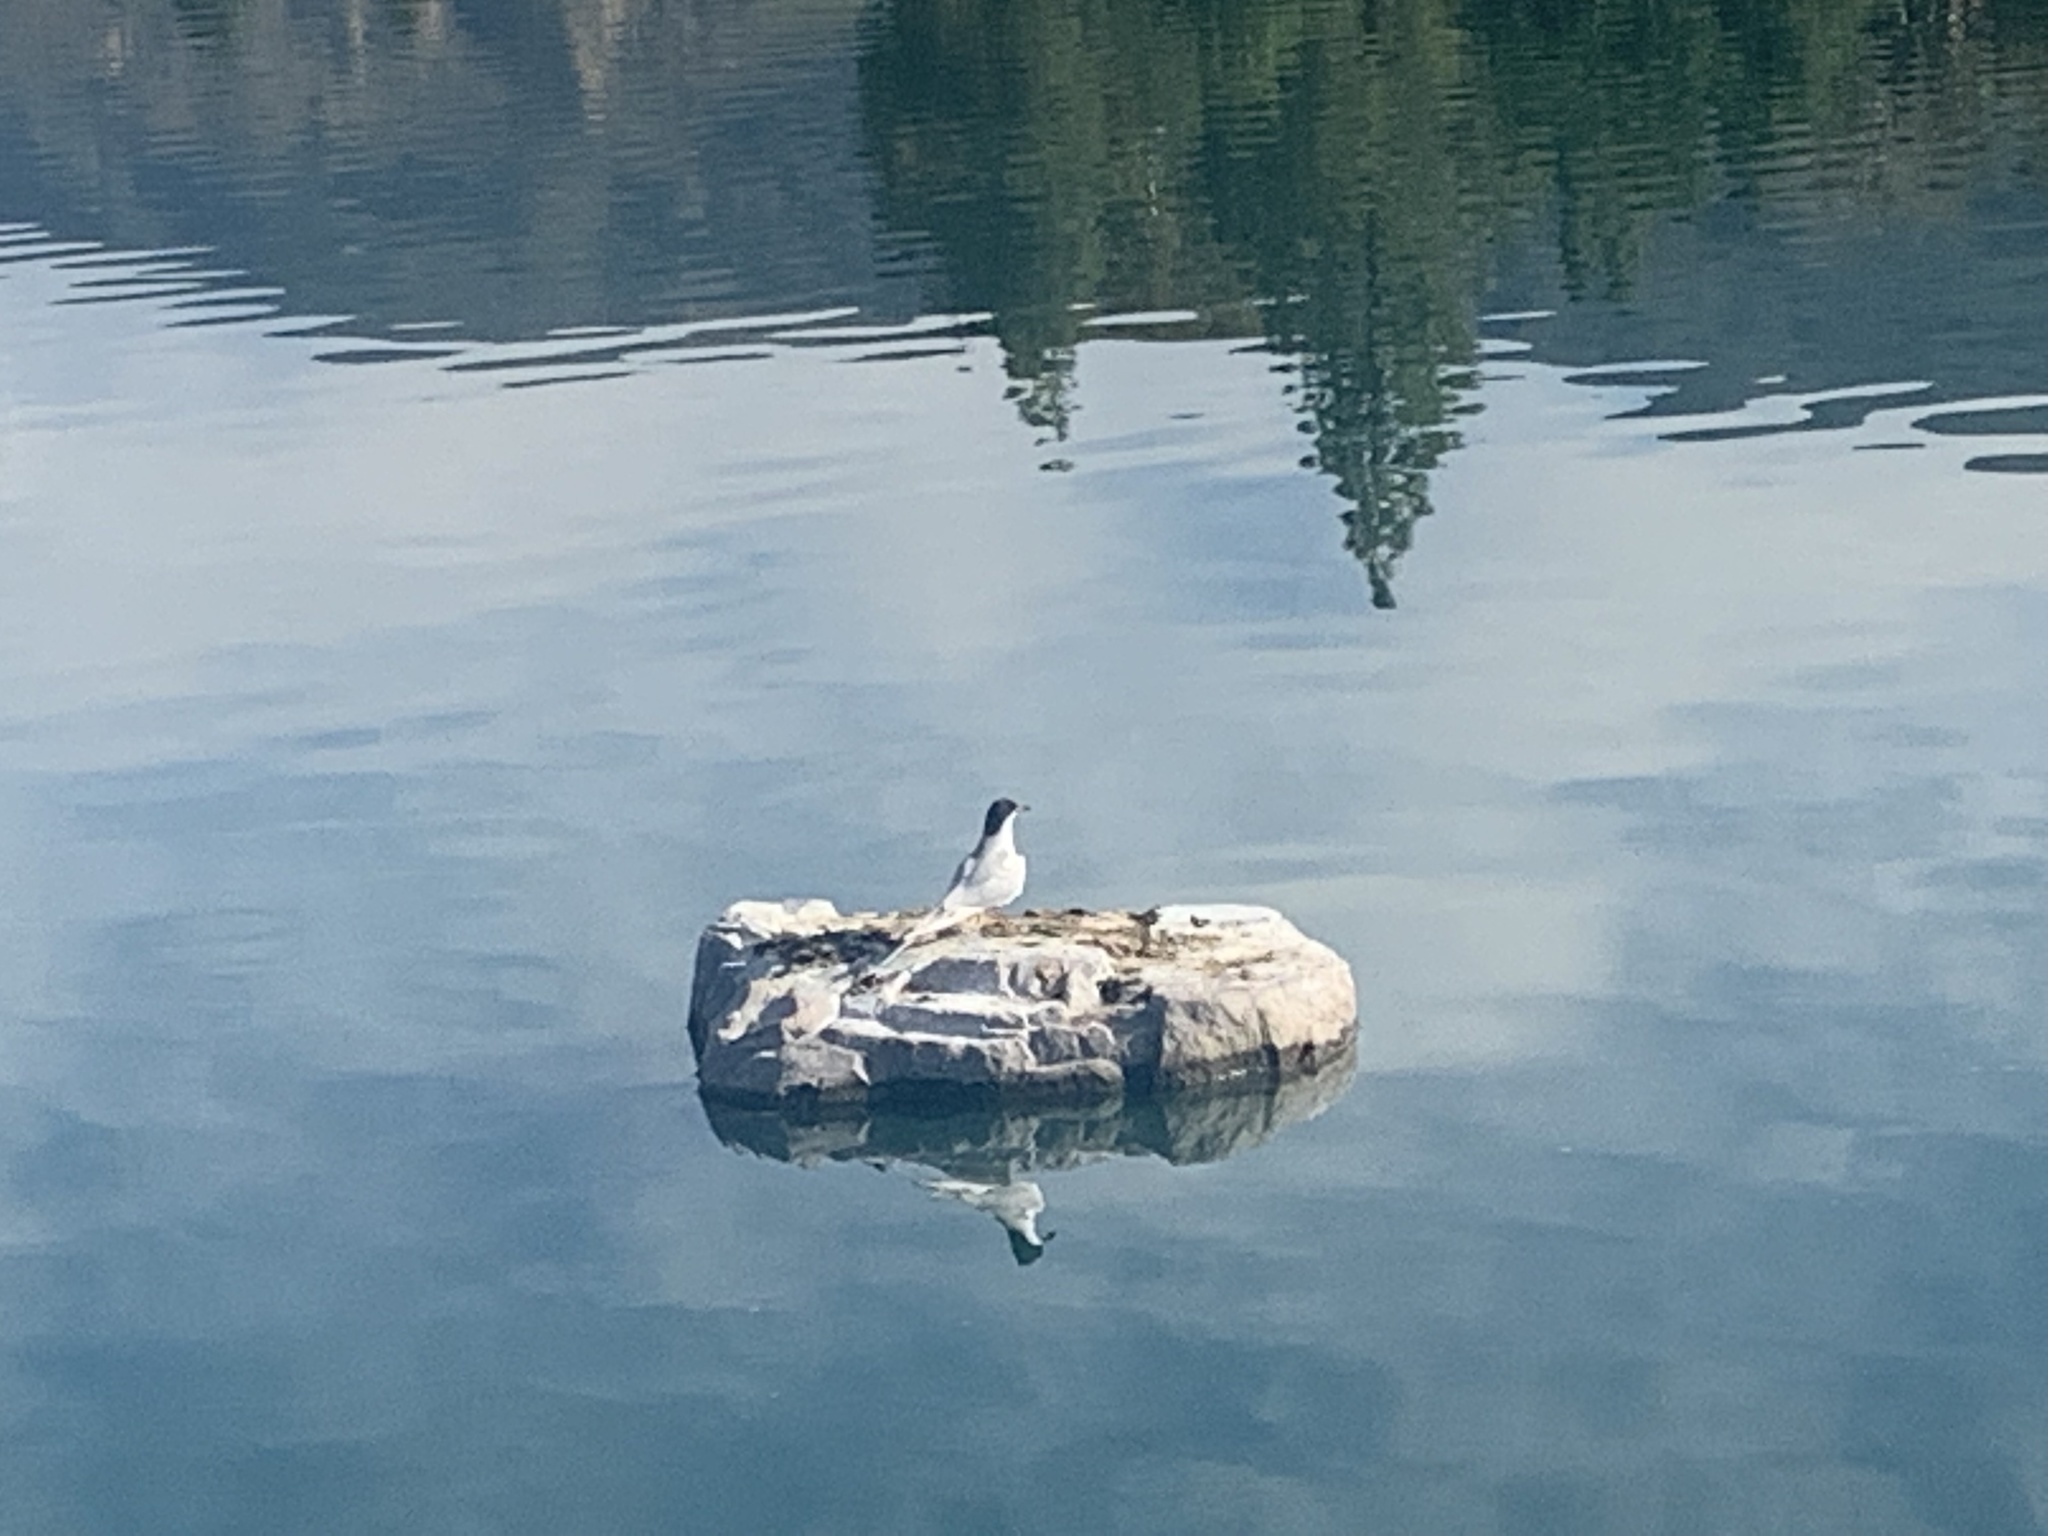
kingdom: Animalia
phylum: Chordata
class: Aves
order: Charadriiformes
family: Laridae
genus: Sterna
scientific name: Sterna forsteri
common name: Forster's tern
